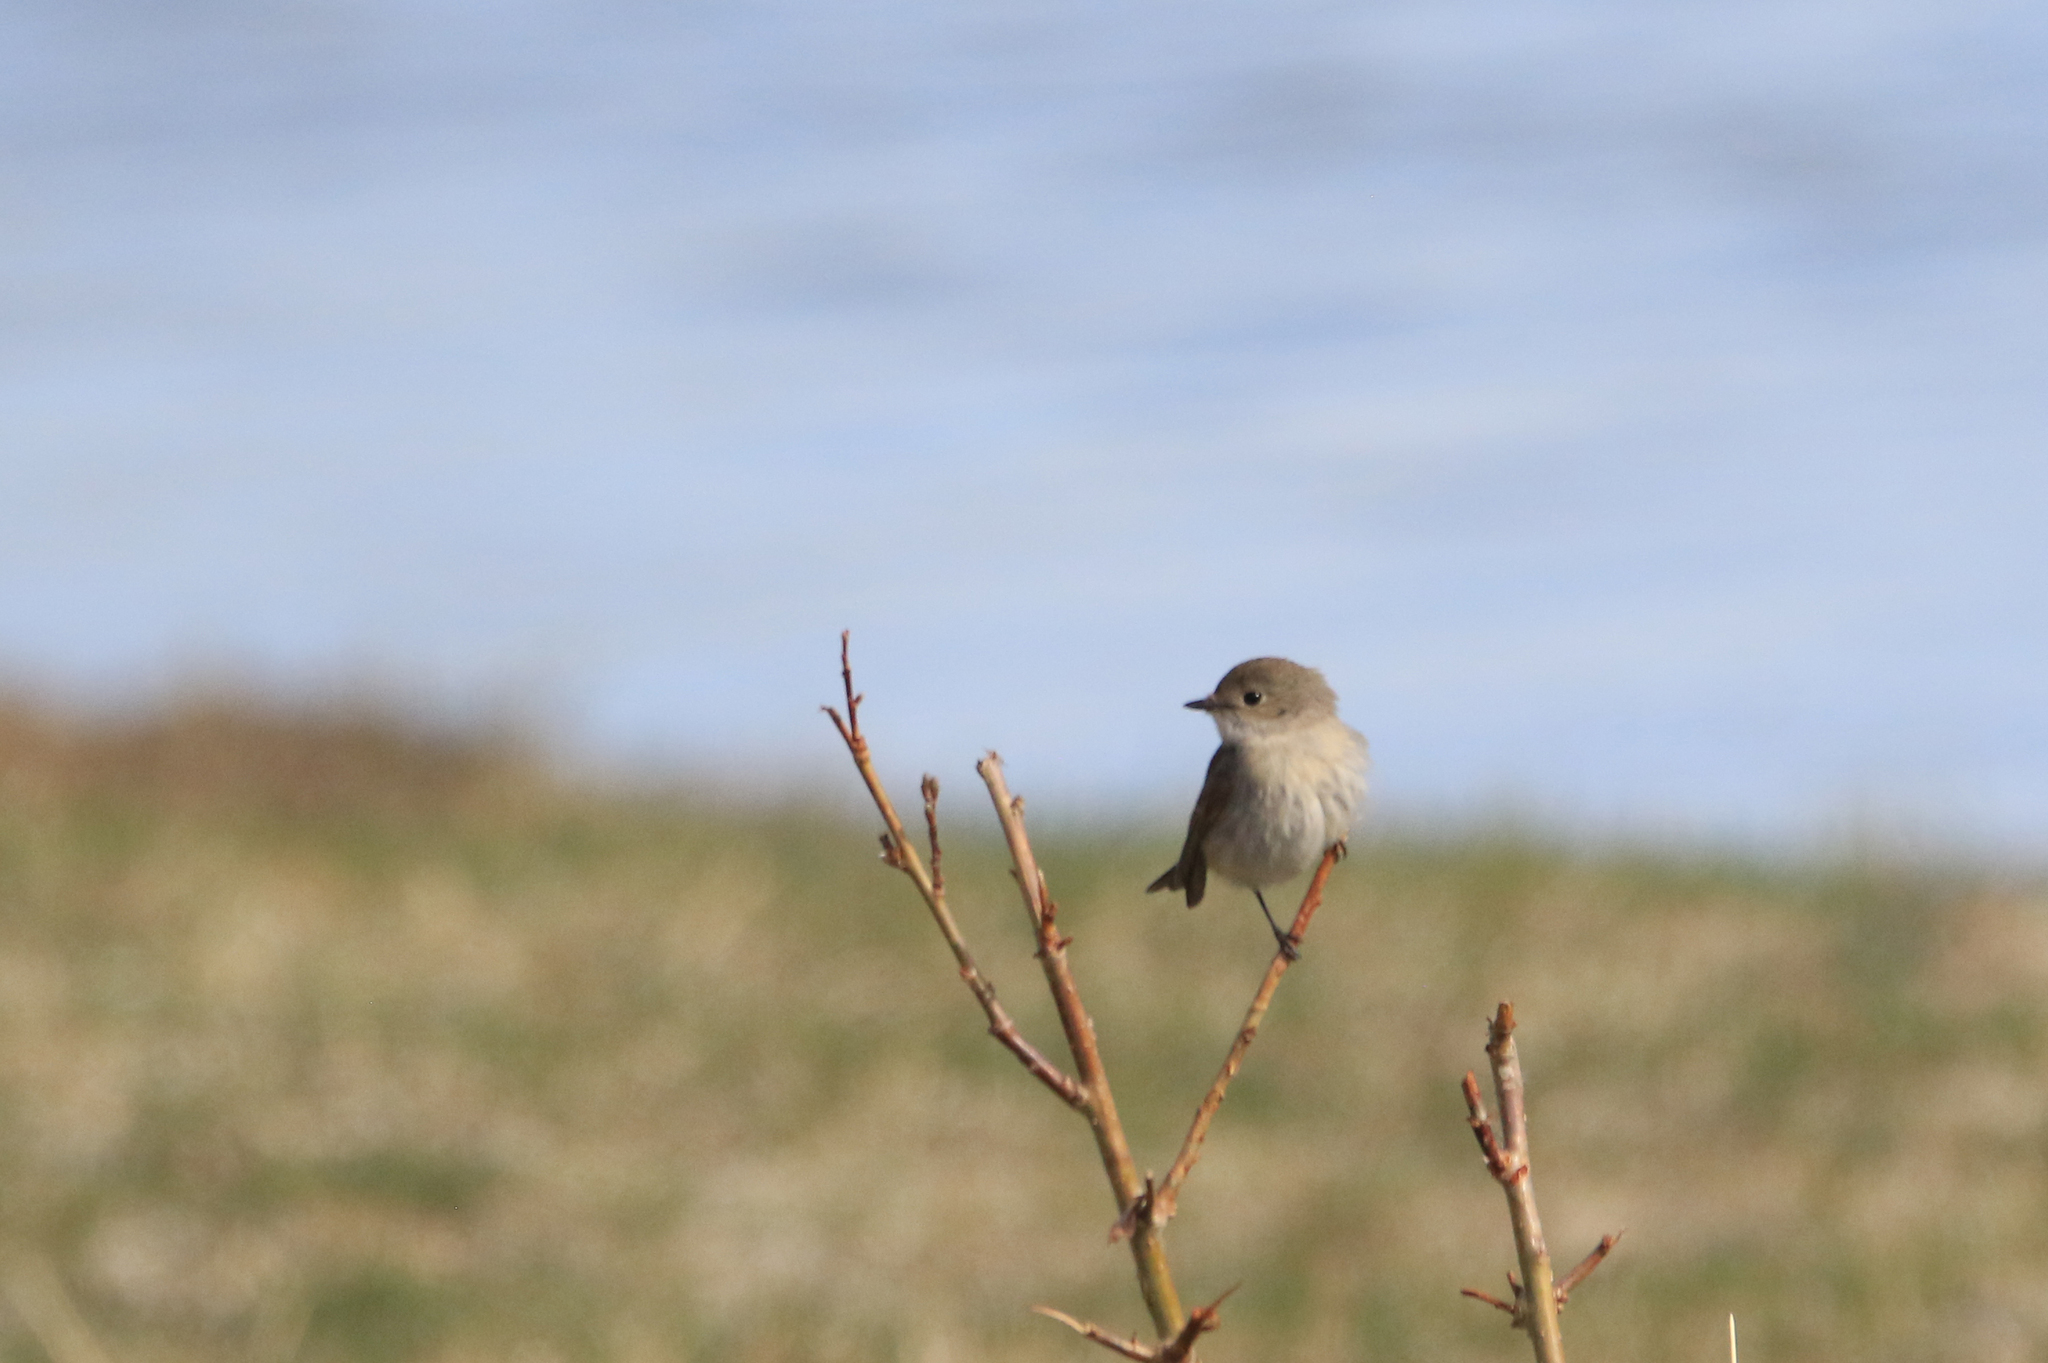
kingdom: Animalia
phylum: Chordata
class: Aves
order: Passeriformes
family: Muscicapidae
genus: Ficedula
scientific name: Ficedula albicilla
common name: Taiga flycatcher
